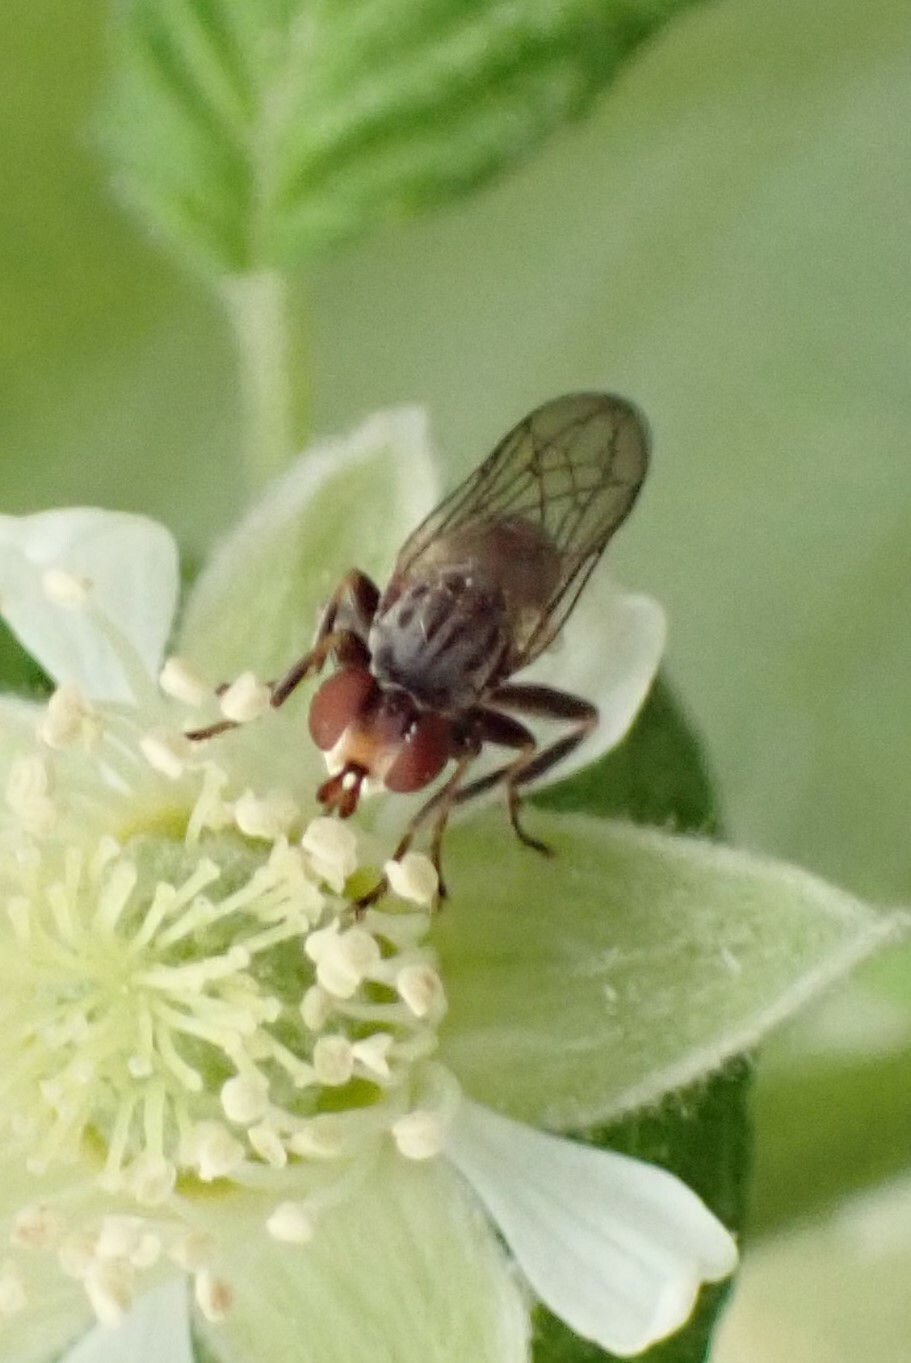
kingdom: Animalia
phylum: Arthropoda
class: Insecta
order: Diptera
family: Conopidae
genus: Zodion
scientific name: Zodion
